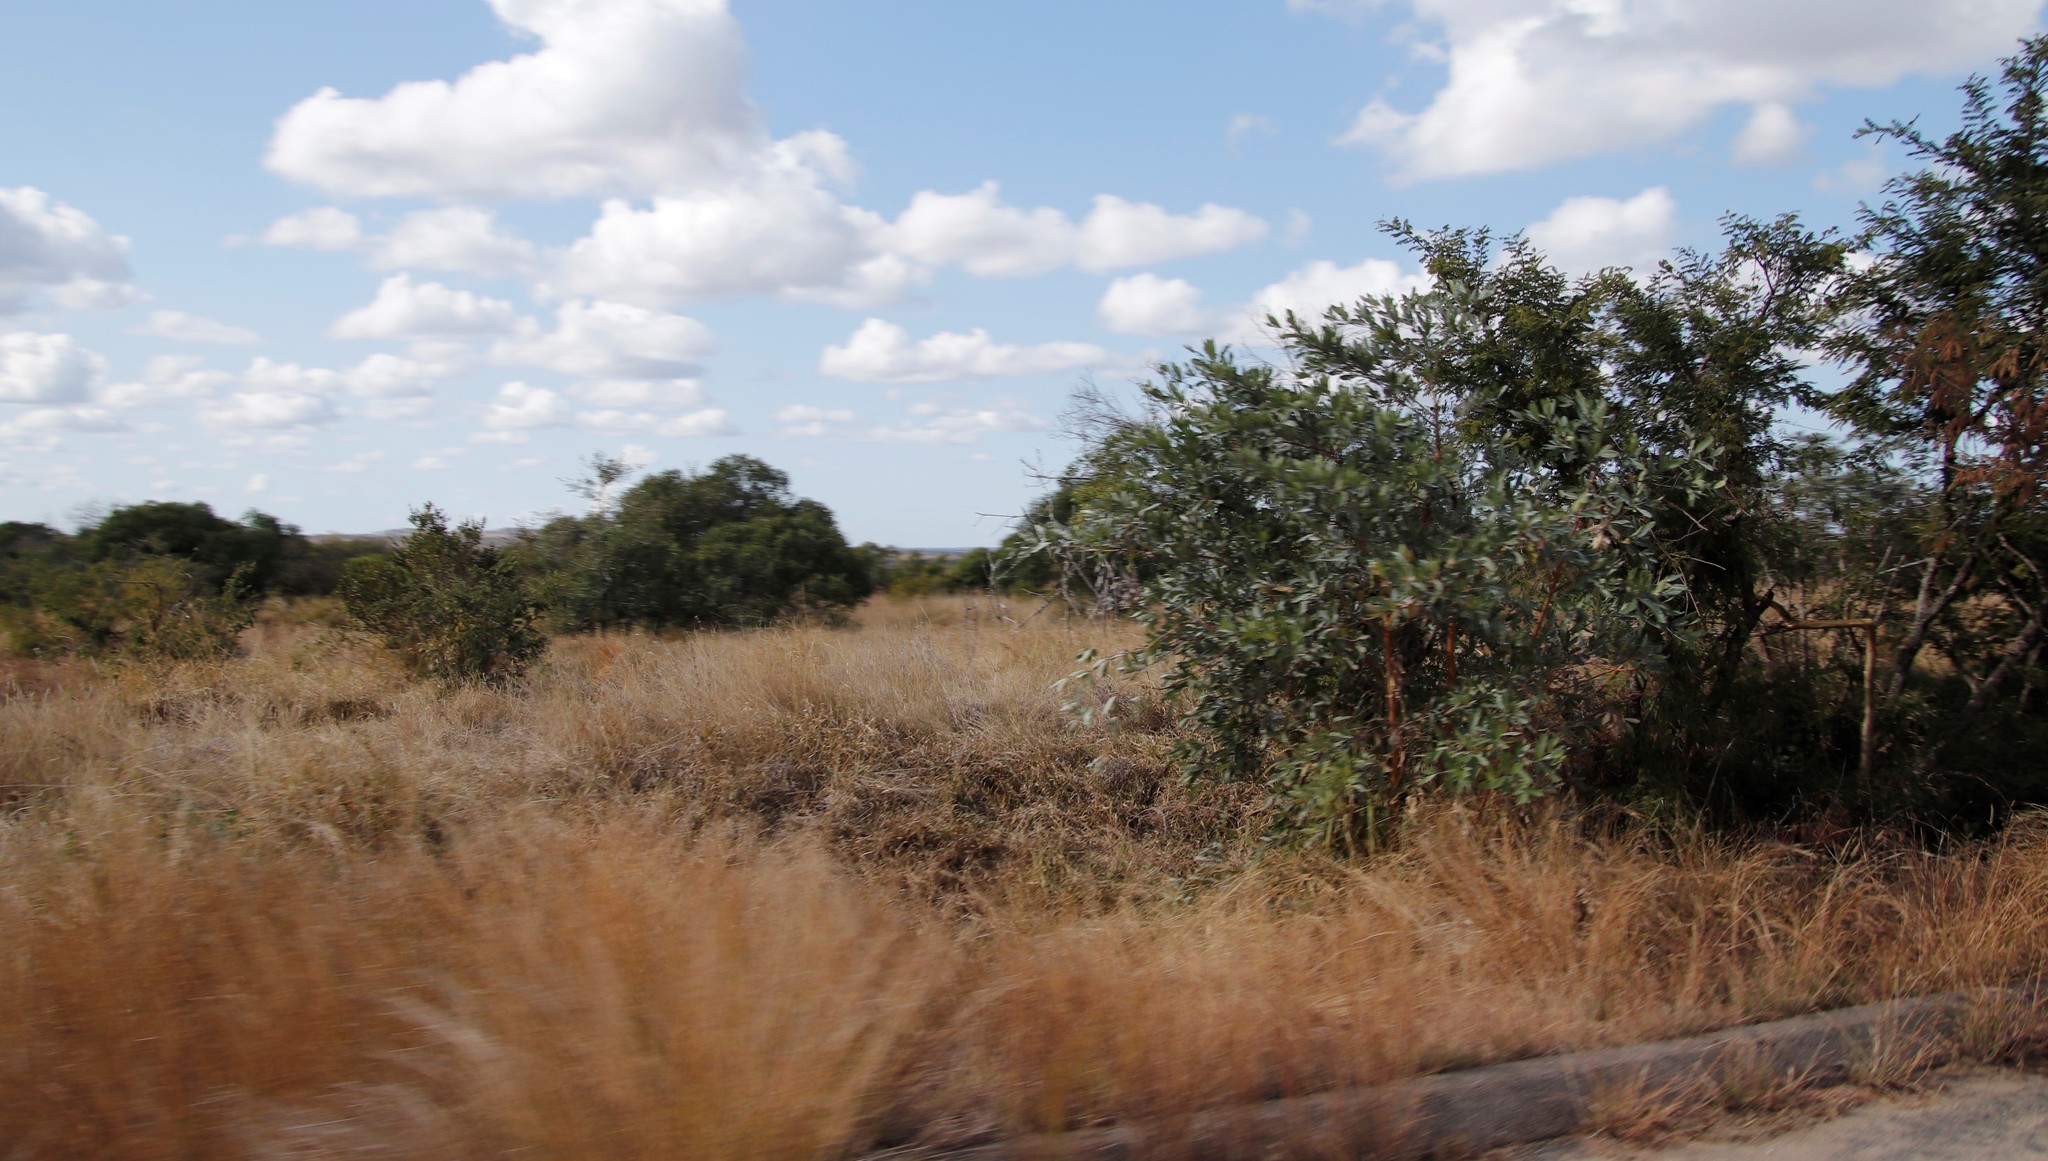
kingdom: Plantae
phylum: Tracheophyta
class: Magnoliopsida
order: Myrtales
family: Combretaceae
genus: Terminalia
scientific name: Terminalia sericea
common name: Clusterleaf
